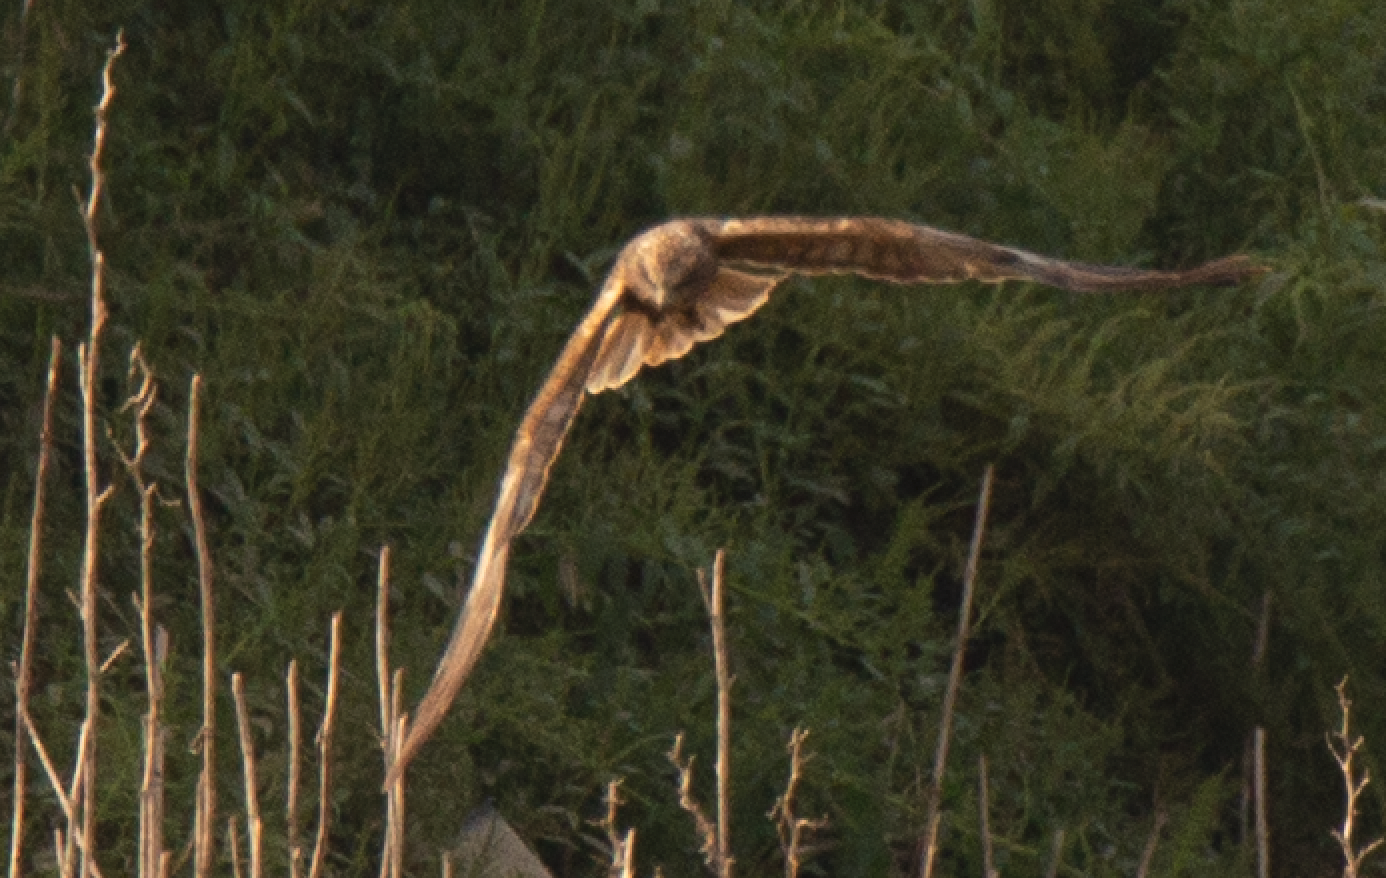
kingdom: Animalia
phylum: Chordata
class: Aves
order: Accipitriformes
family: Accipitridae
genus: Circus
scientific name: Circus aeruginosus
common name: Western marsh harrier
